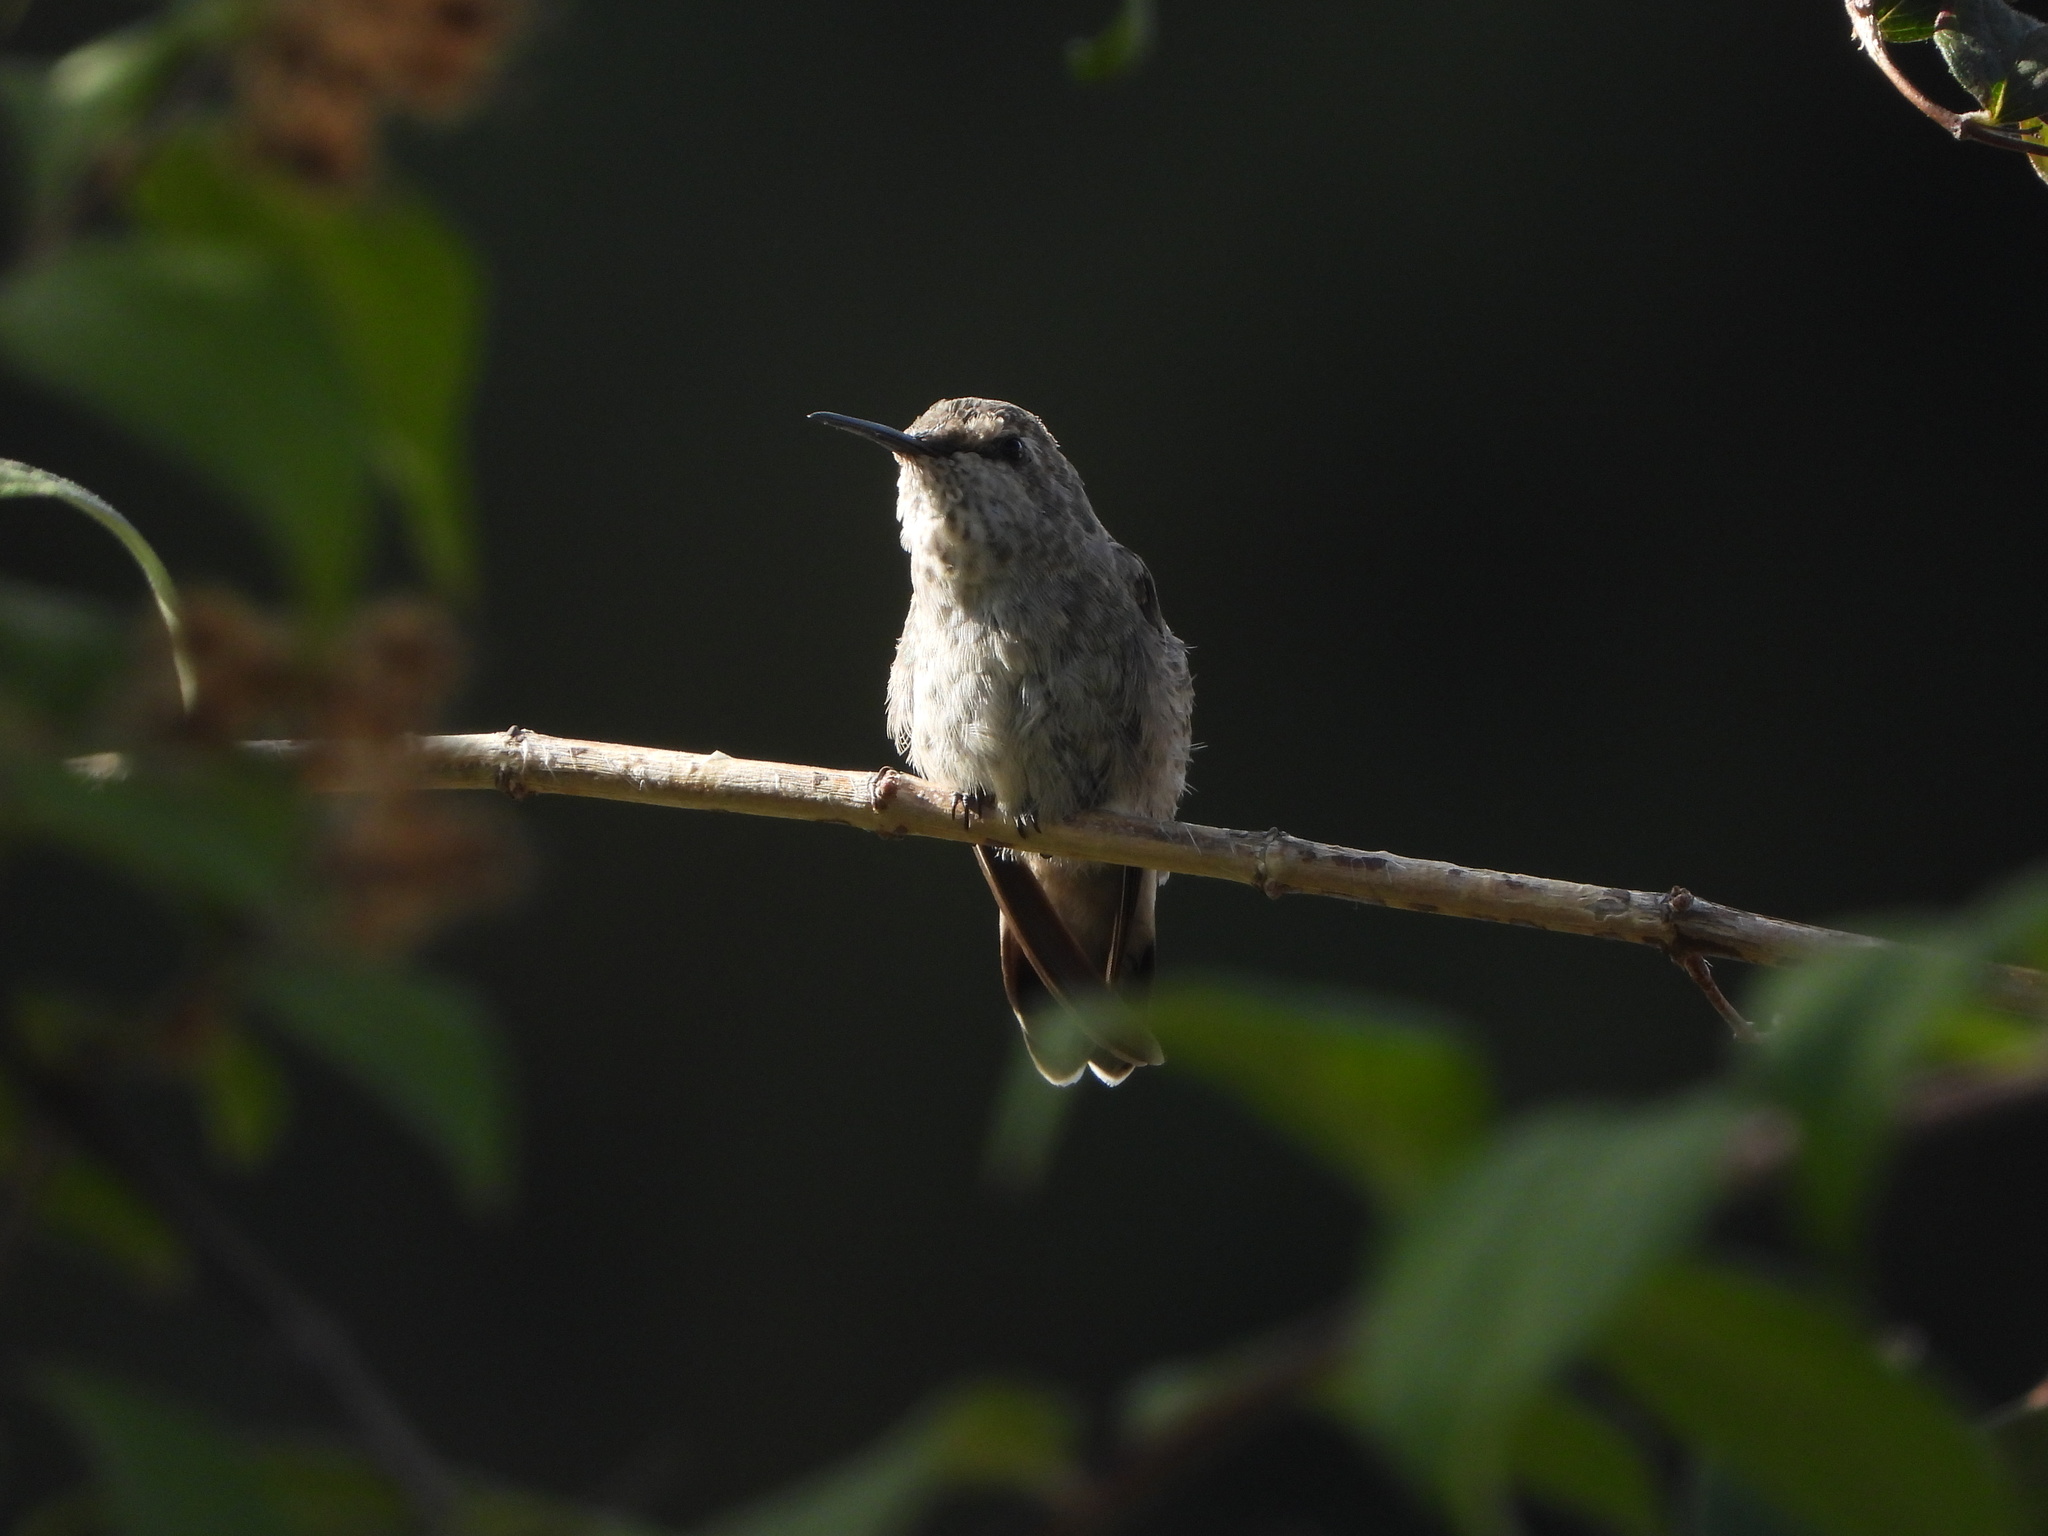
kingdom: Animalia
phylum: Chordata
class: Aves
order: Apodiformes
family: Trochilidae
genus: Calypte
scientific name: Calypte anna
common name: Anna's hummingbird
